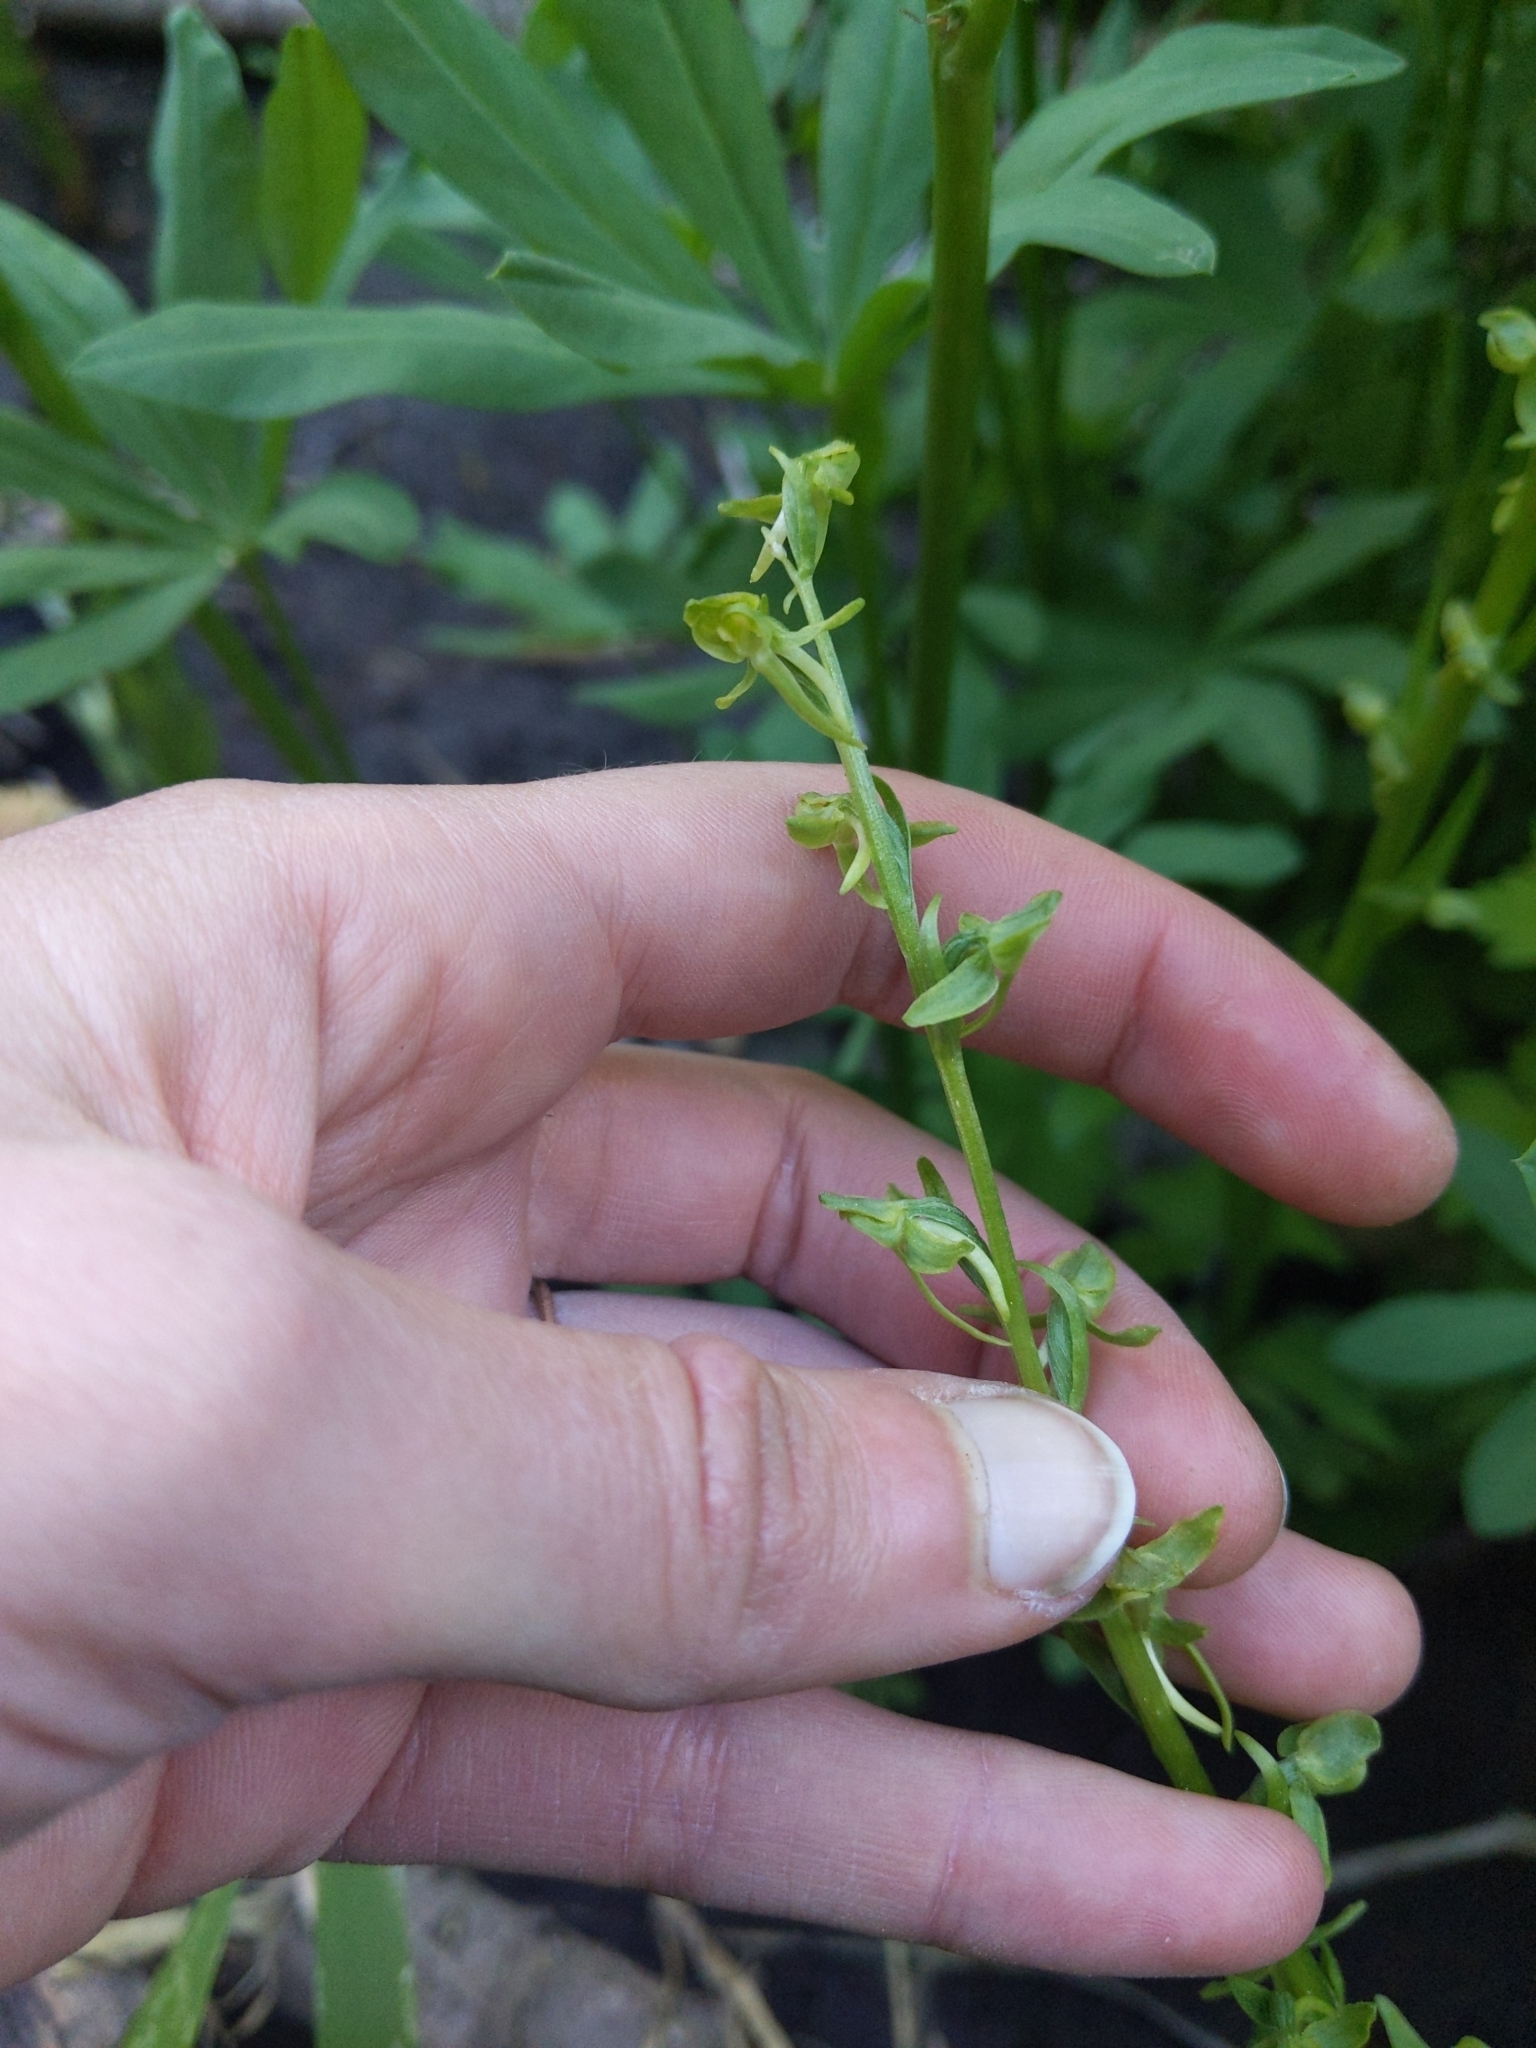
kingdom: Plantae
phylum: Tracheophyta
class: Liliopsida
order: Asparagales
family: Orchidaceae
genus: Platanthera
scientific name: Platanthera sparsiflora
